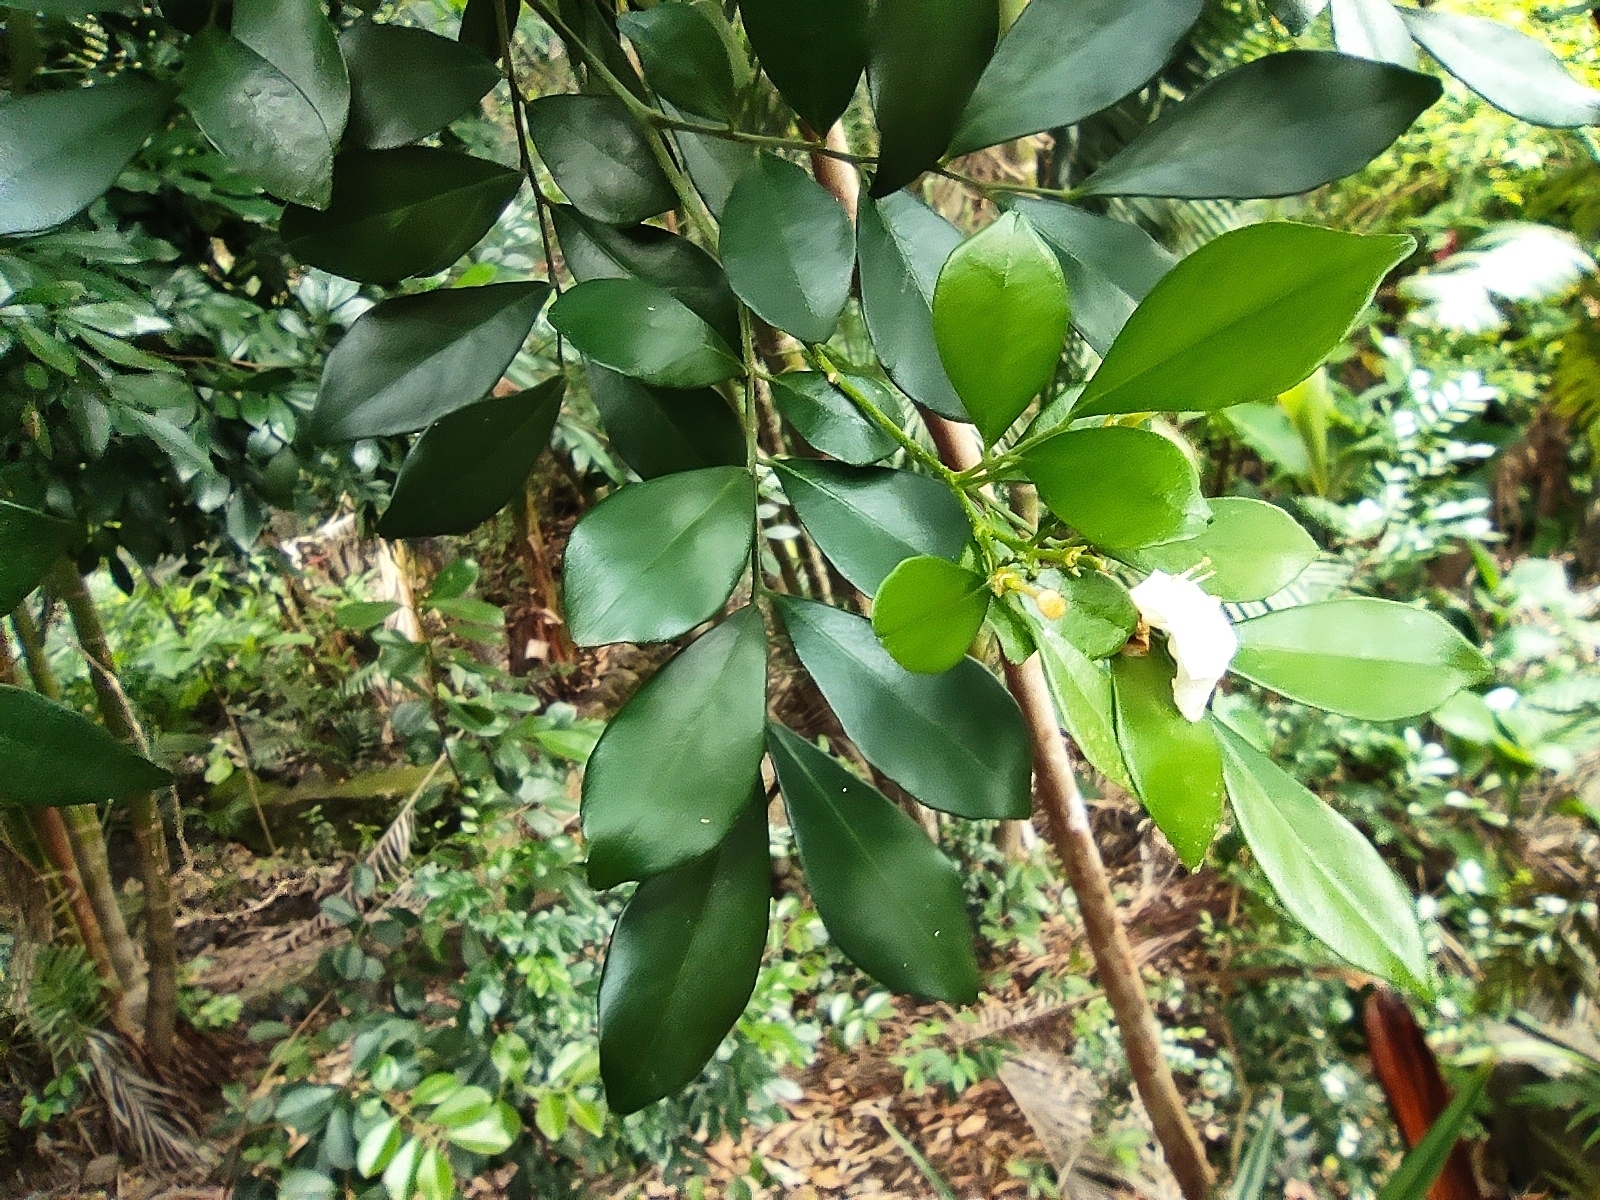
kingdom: Plantae
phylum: Tracheophyta
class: Magnoliopsida
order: Sapindales
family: Rutaceae
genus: Murraya
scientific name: Murraya paniculata
